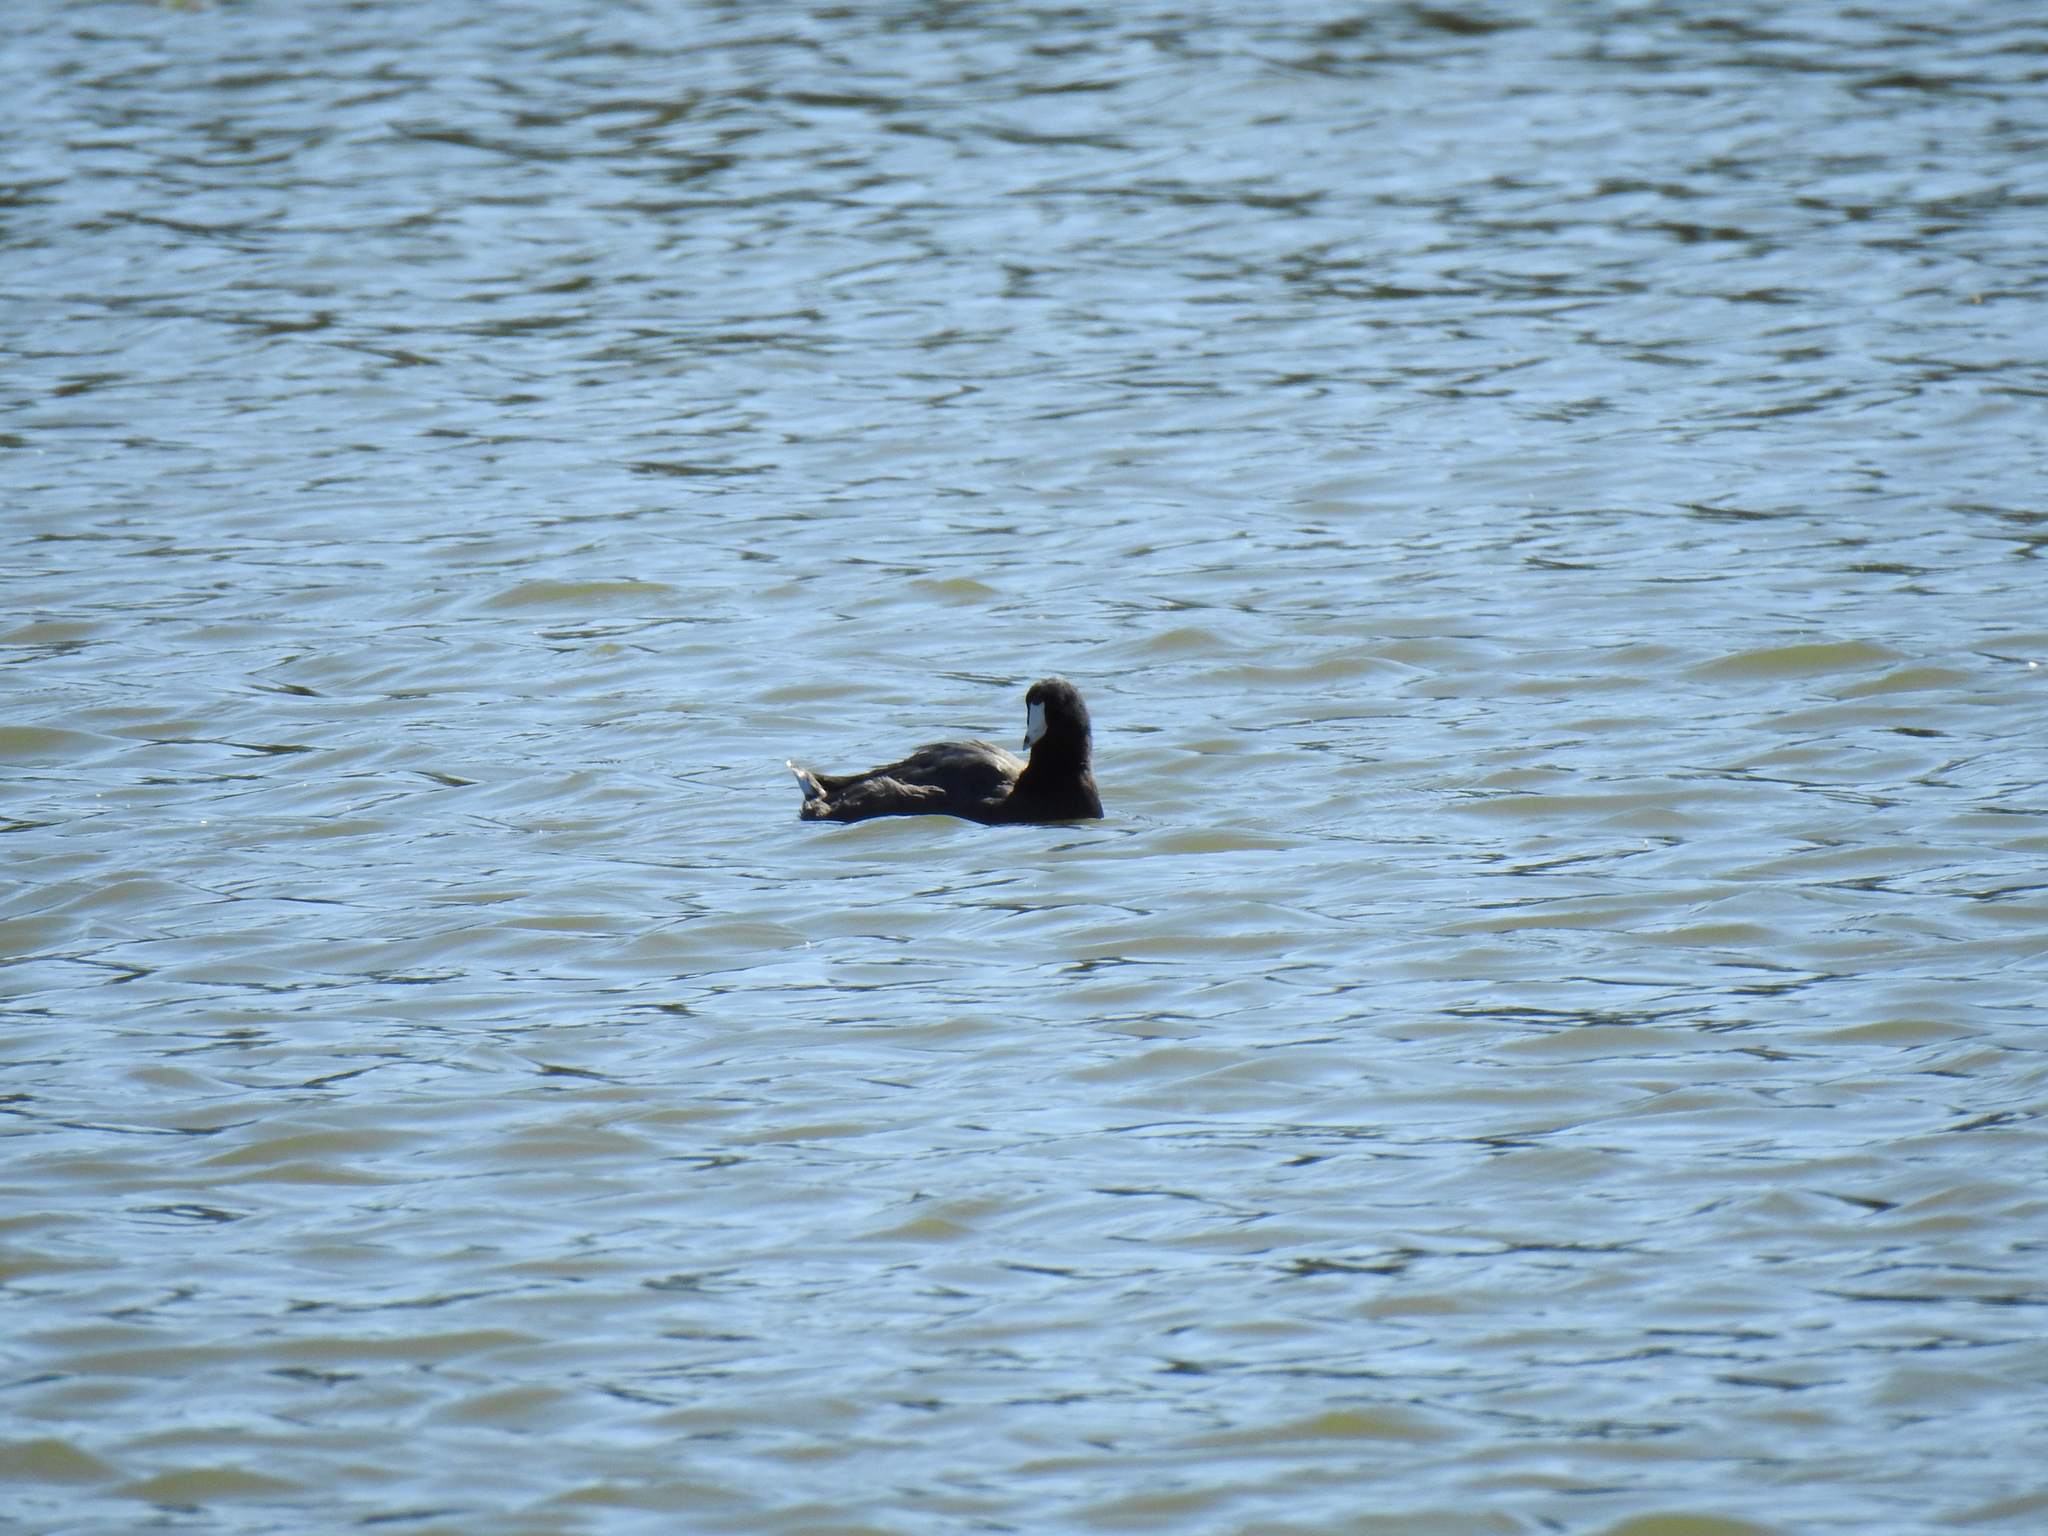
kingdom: Animalia
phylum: Chordata
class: Aves
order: Gruiformes
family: Rallidae
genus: Fulica
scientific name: Fulica americana
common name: American coot
